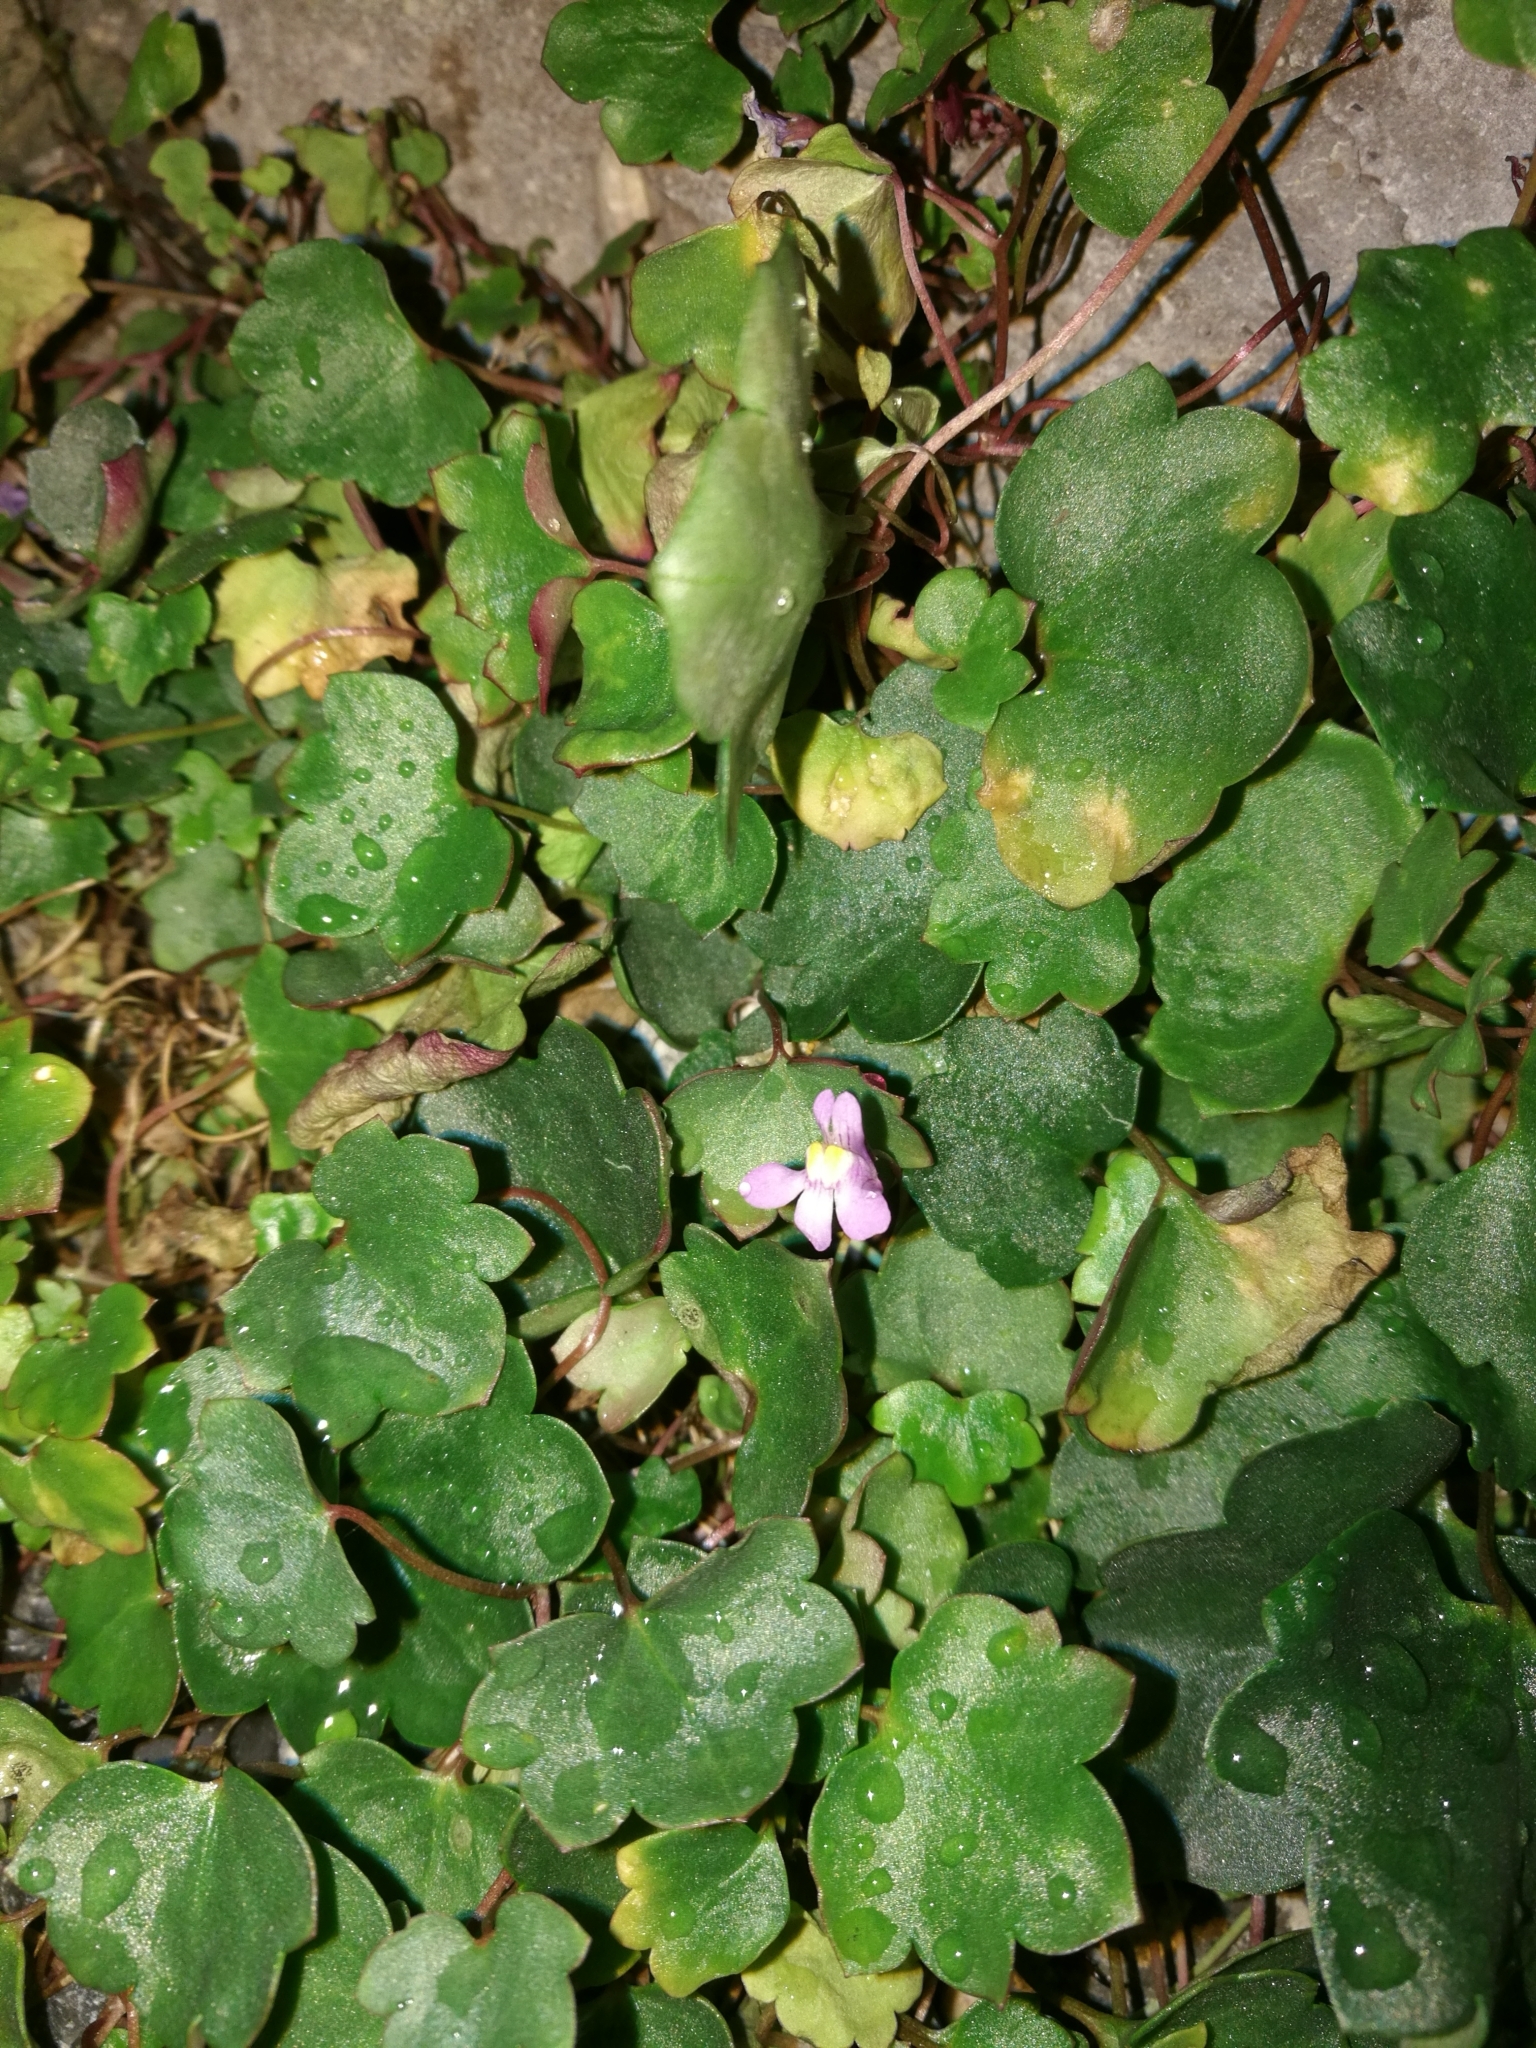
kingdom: Plantae
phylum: Tracheophyta
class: Magnoliopsida
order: Lamiales
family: Plantaginaceae
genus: Cymbalaria
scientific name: Cymbalaria muralis
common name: Ivy-leaved toadflax
